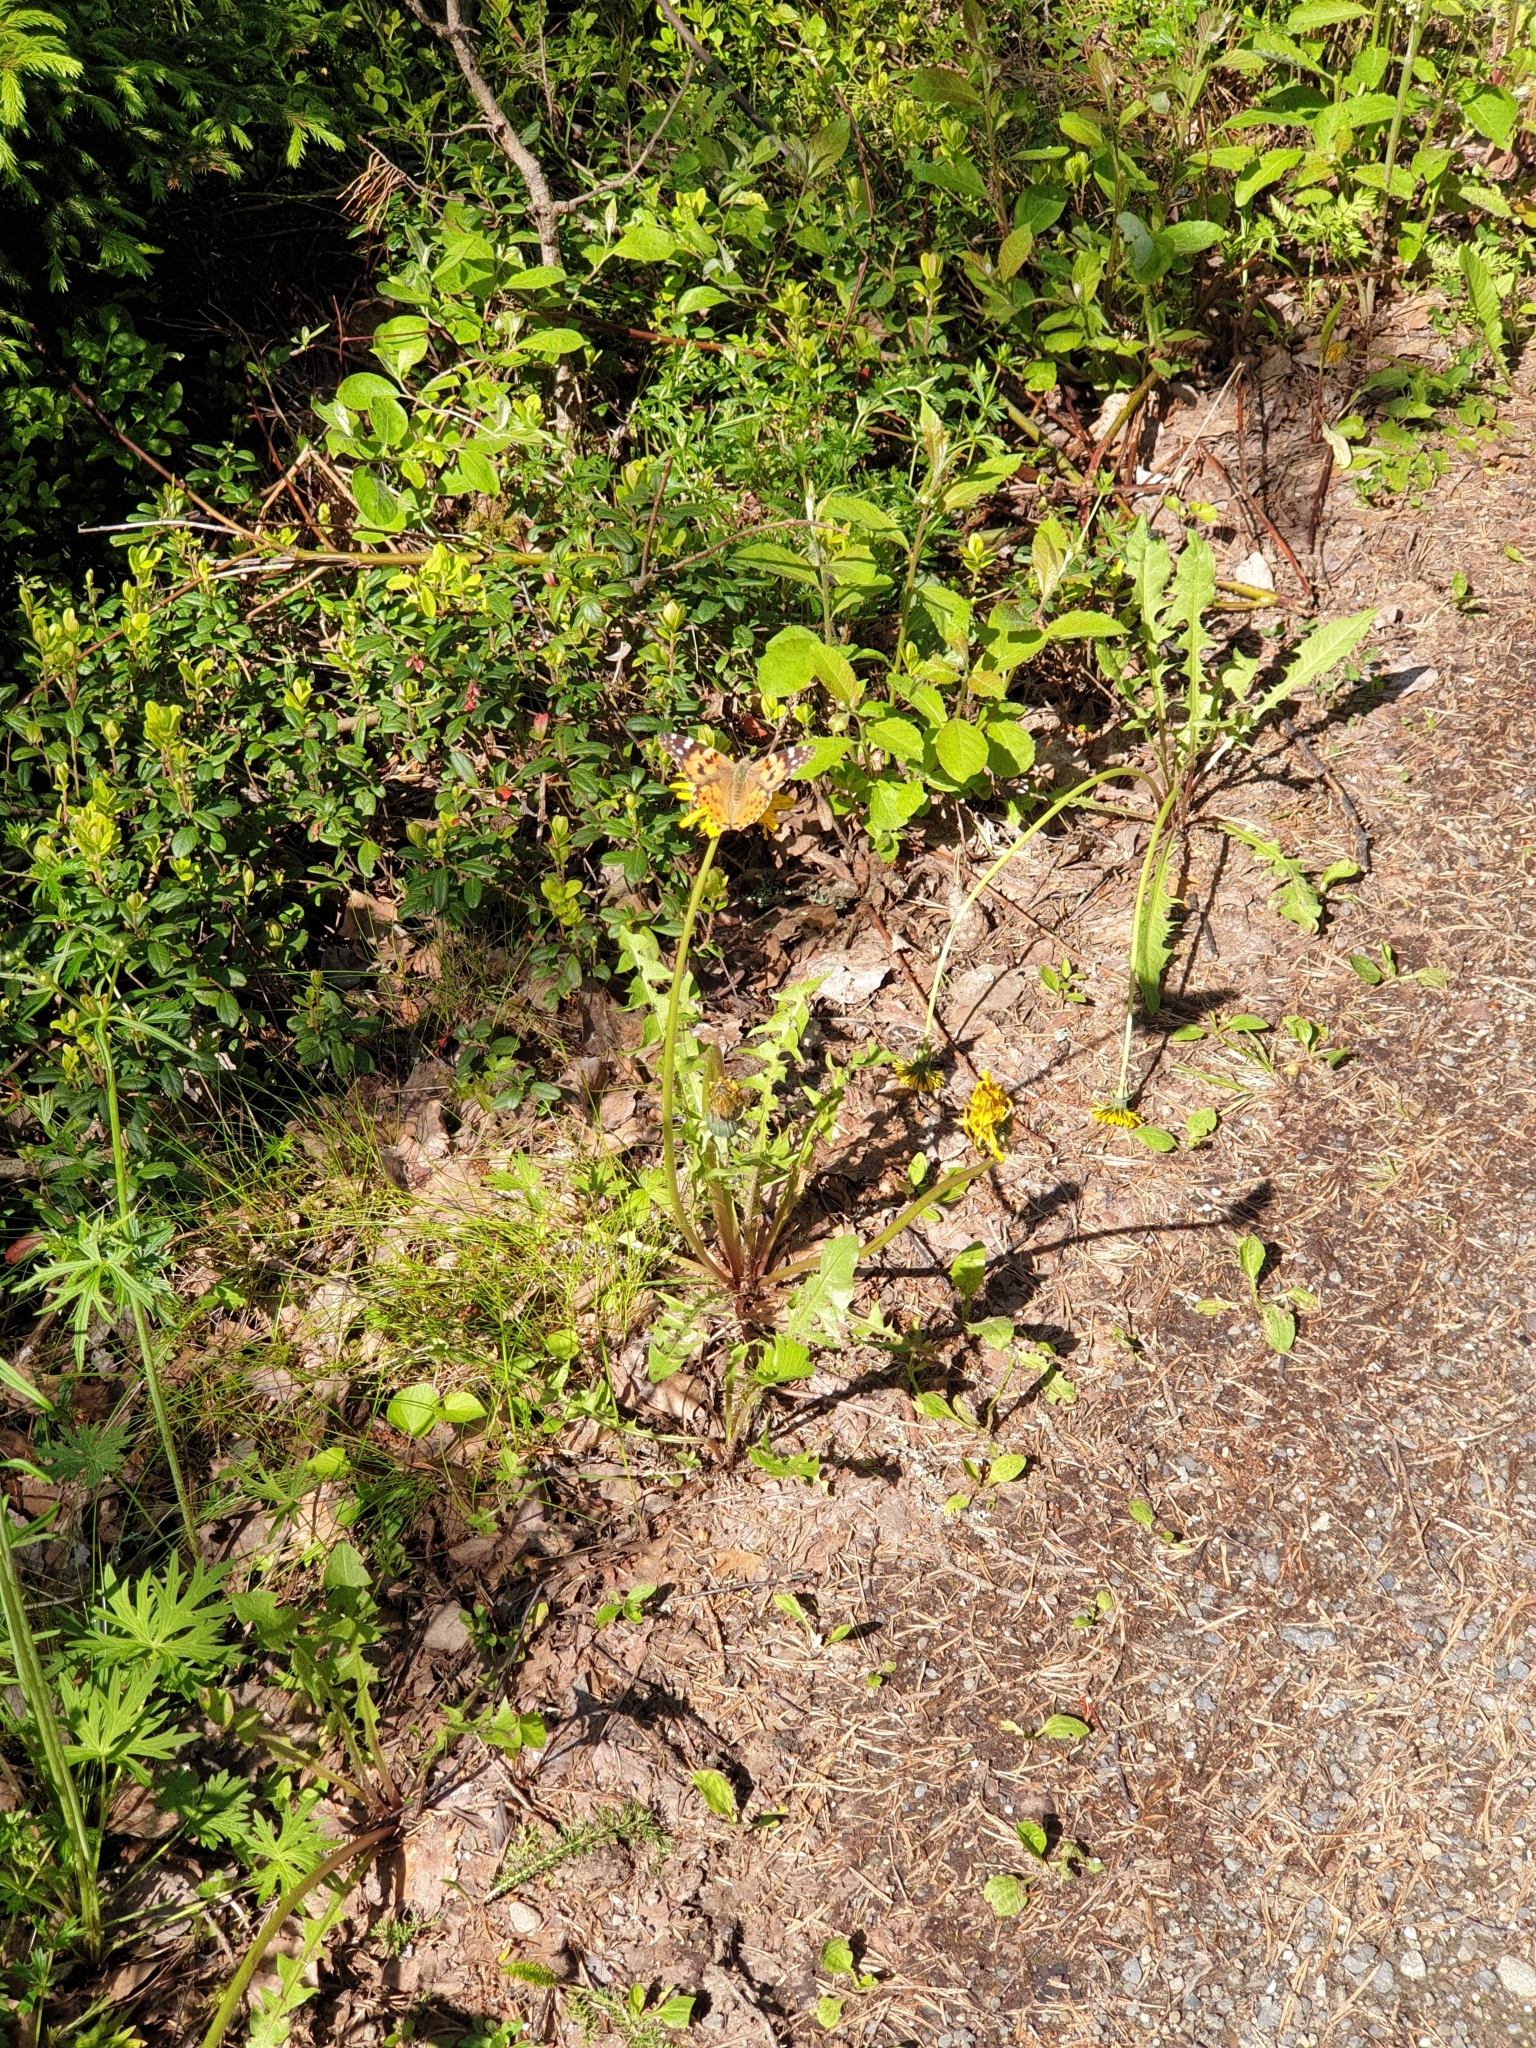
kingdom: Animalia
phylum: Arthropoda
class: Insecta
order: Lepidoptera
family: Nymphalidae
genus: Vanessa
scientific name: Vanessa cardui
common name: Painted lady
